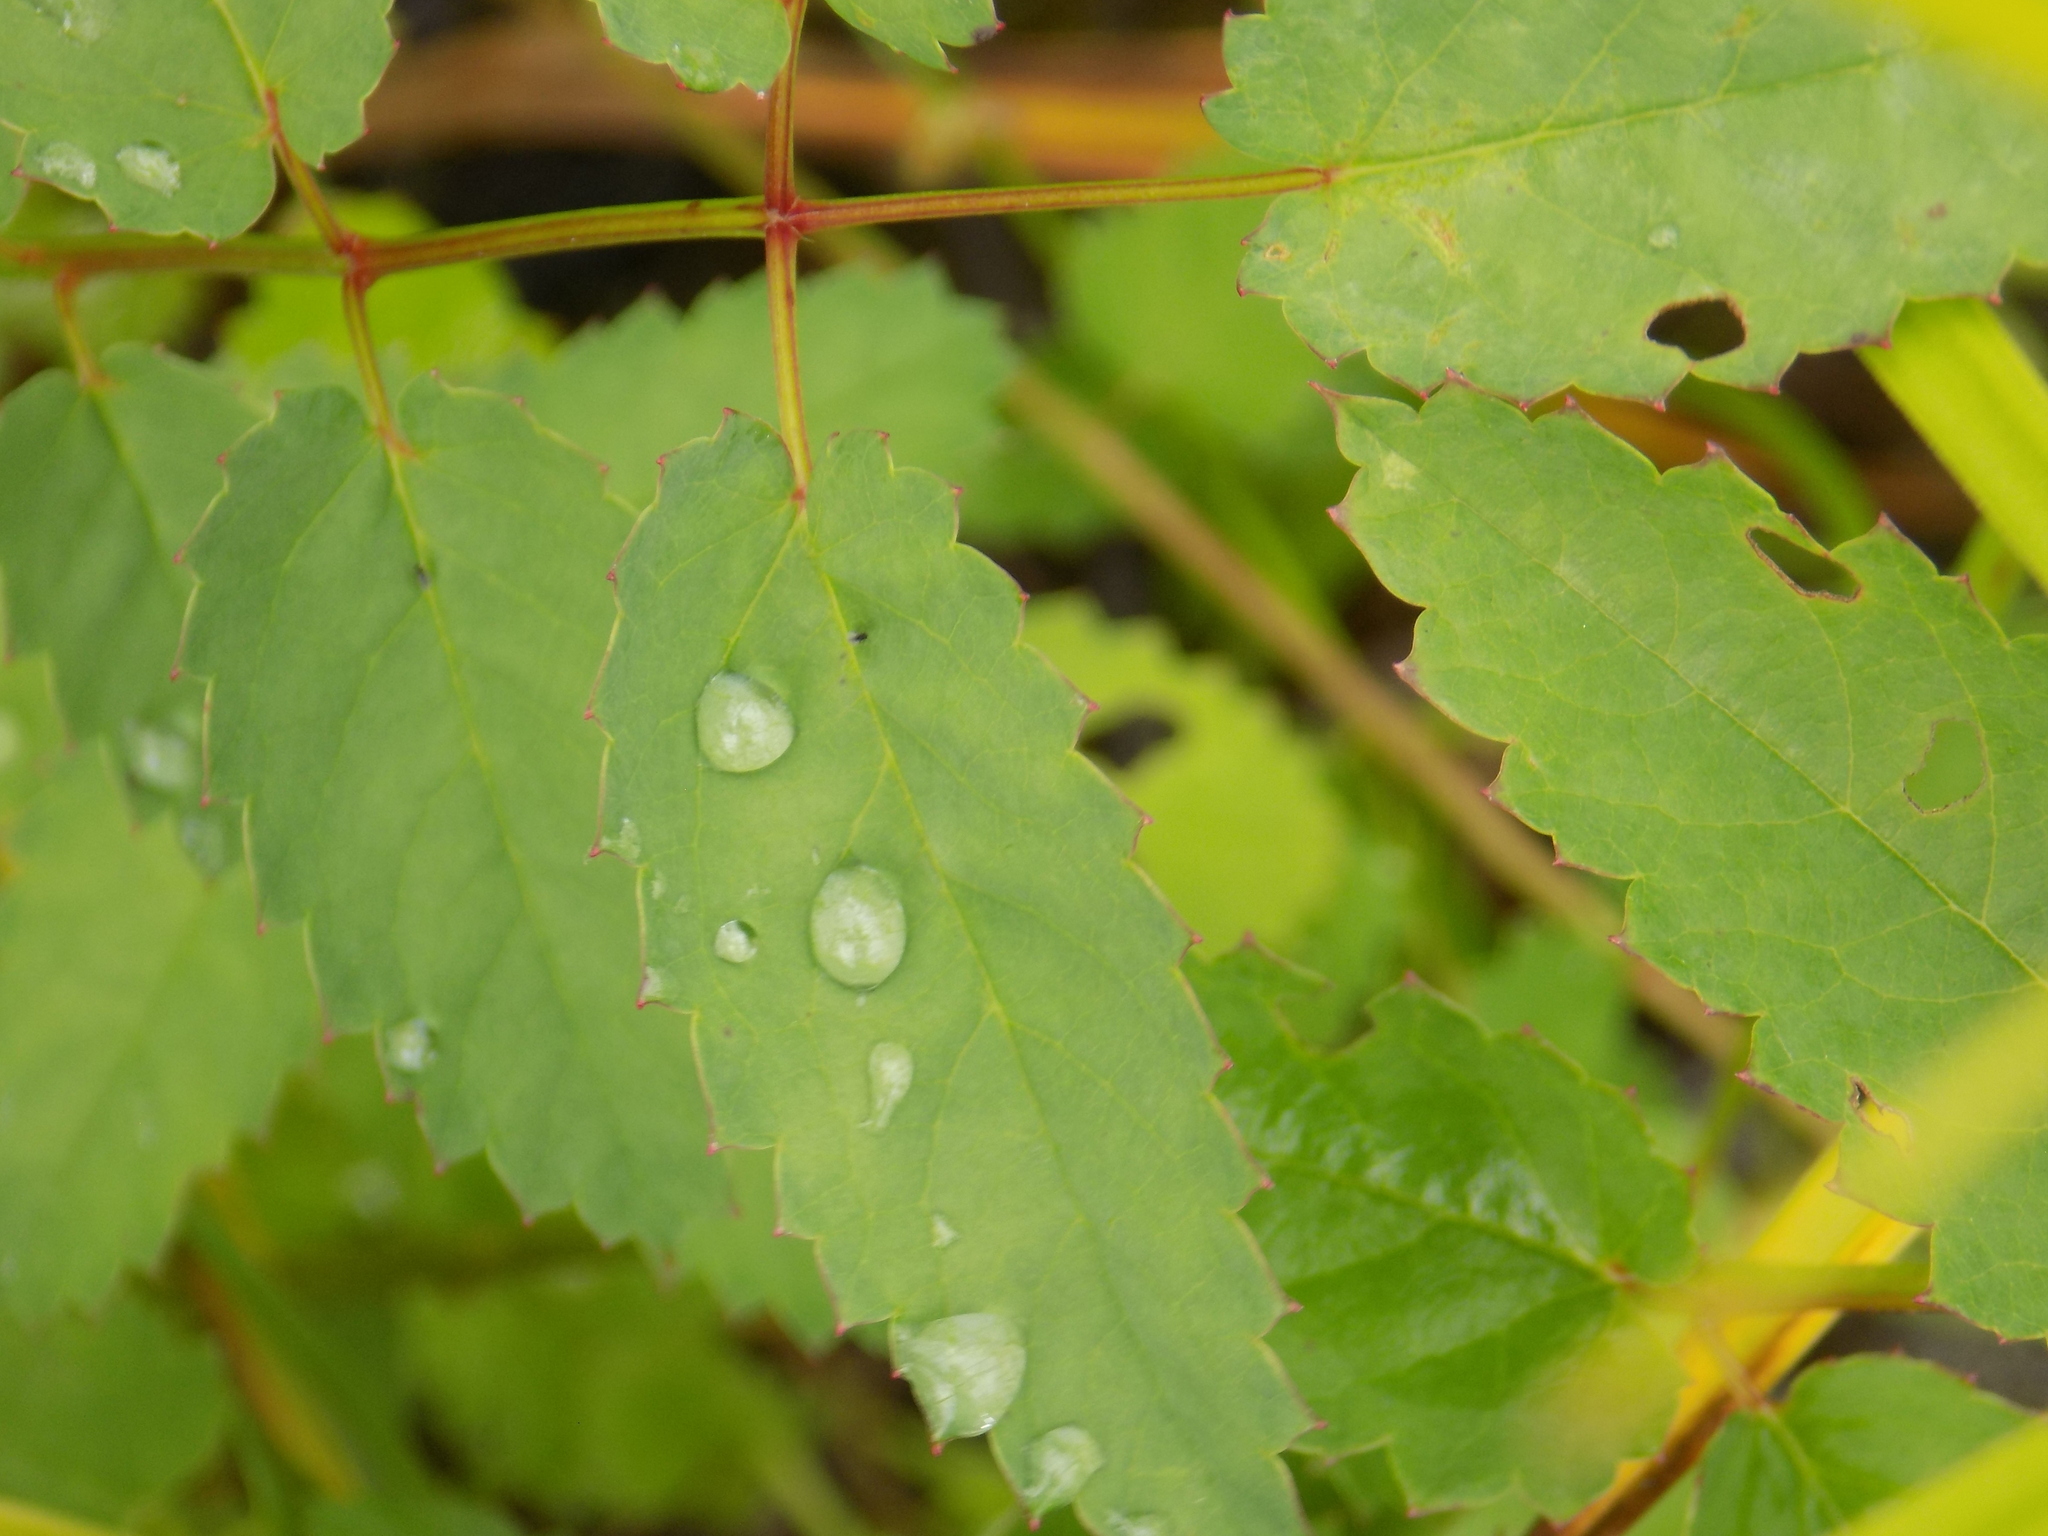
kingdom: Plantae
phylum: Tracheophyta
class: Magnoliopsida
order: Rosales
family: Rosaceae
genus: Sanguisorba
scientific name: Sanguisorba officinalis
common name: Great burnet
